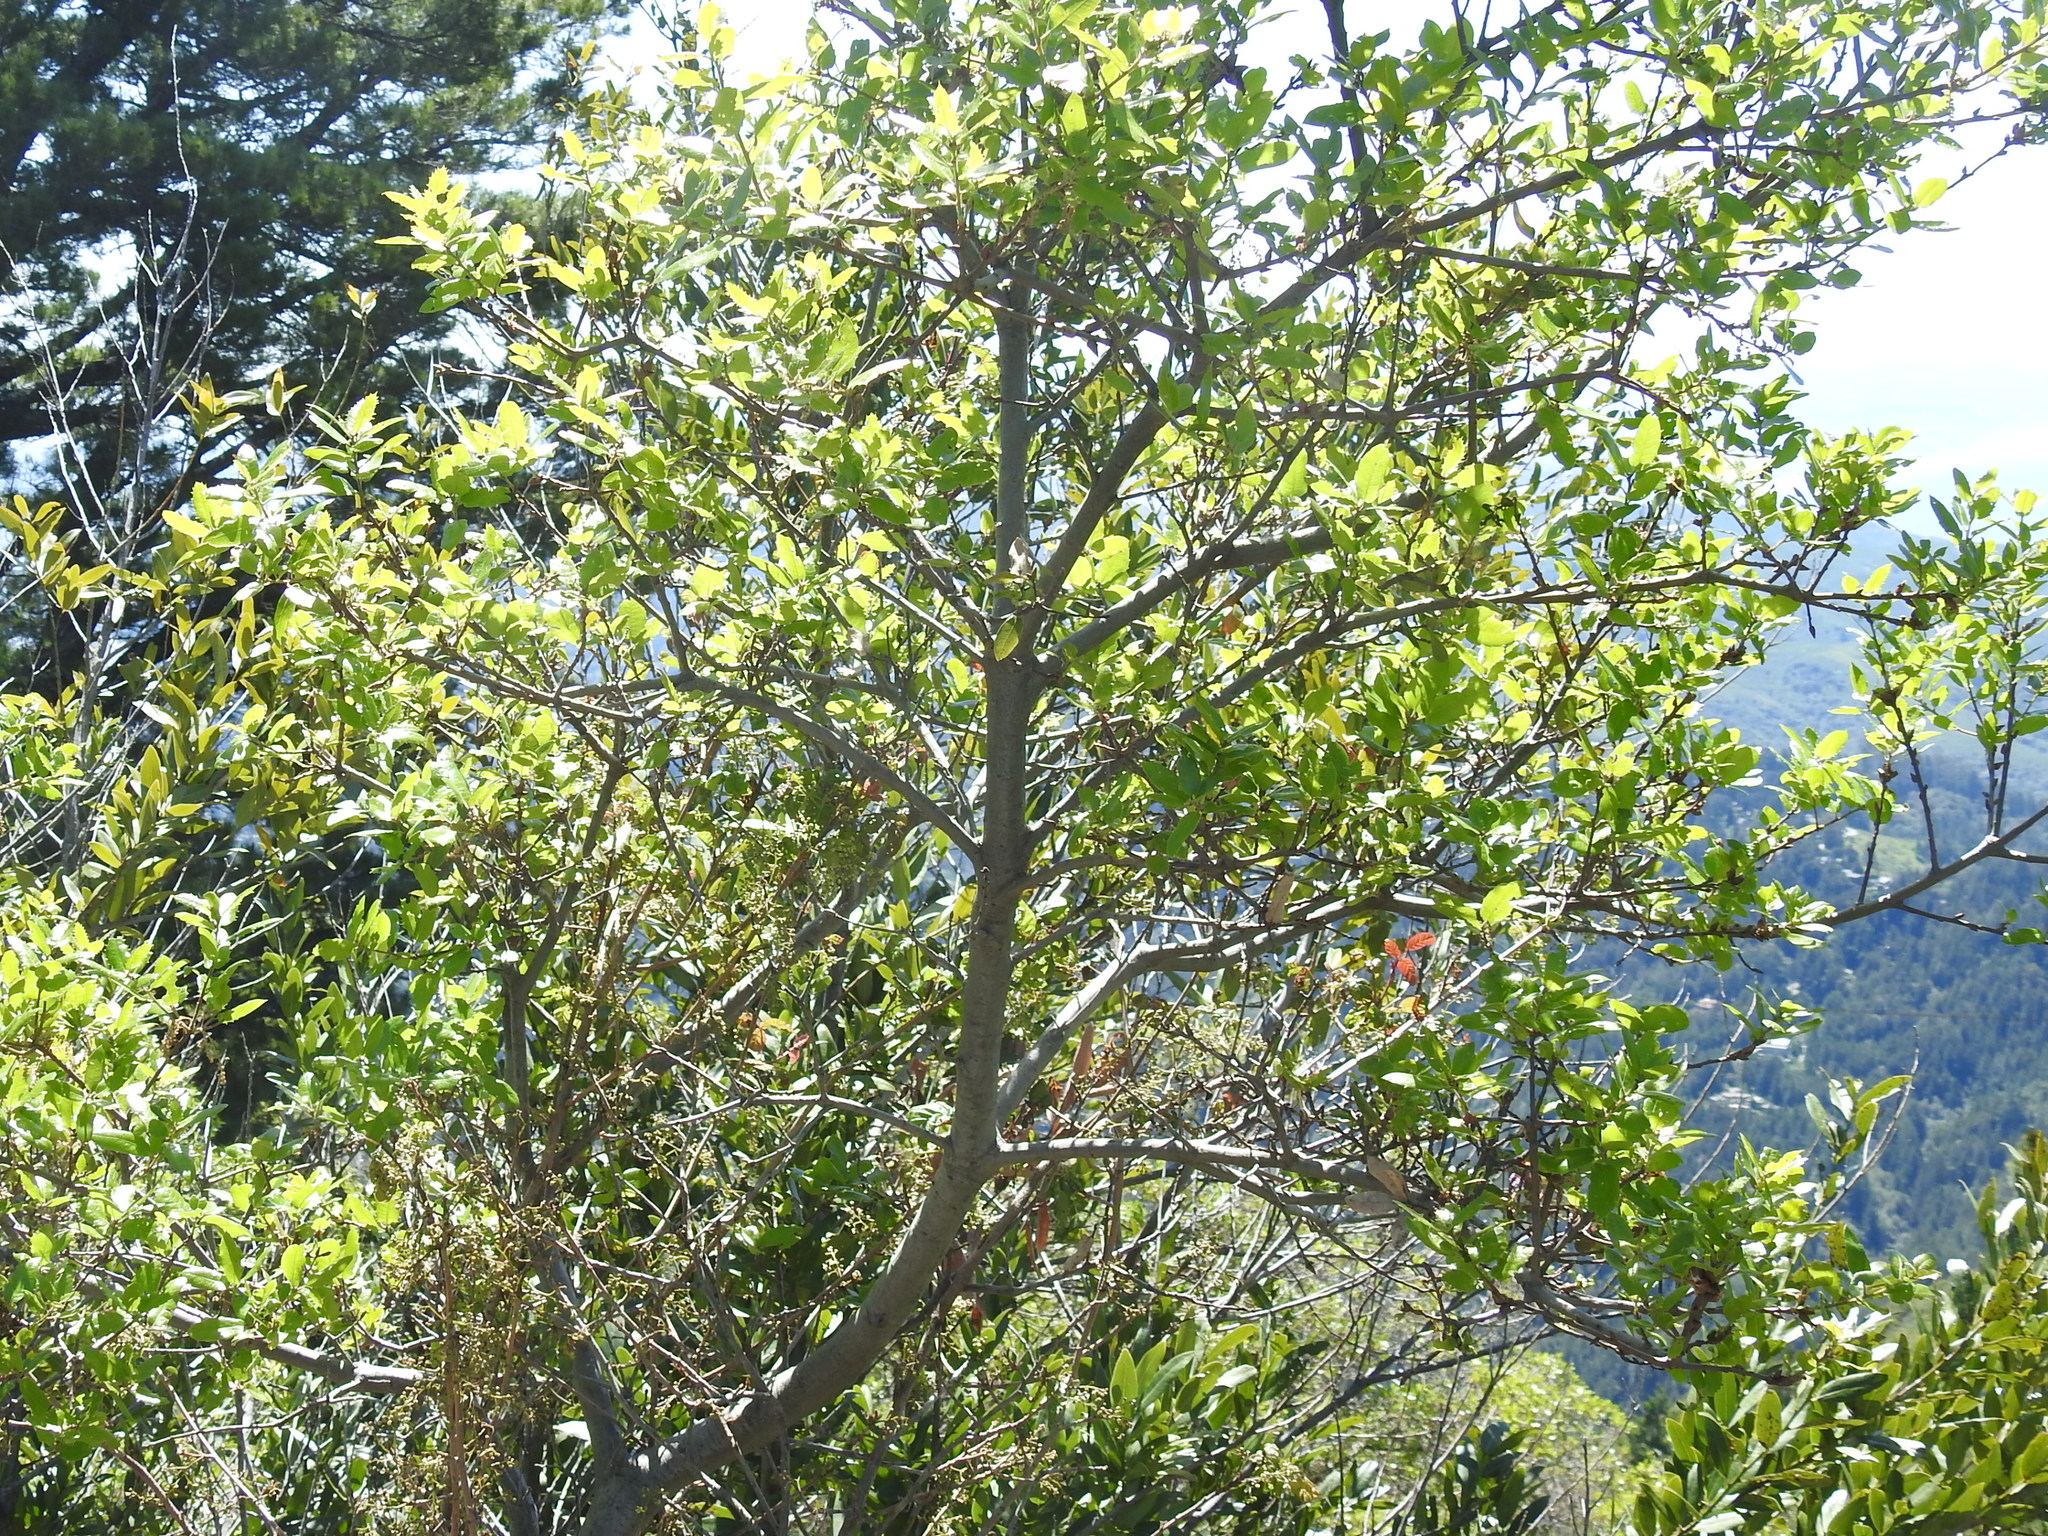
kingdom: Plantae
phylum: Tracheophyta
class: Magnoliopsida
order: Fagales
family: Fagaceae
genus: Quercus
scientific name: Quercus agrifolia
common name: California live oak
